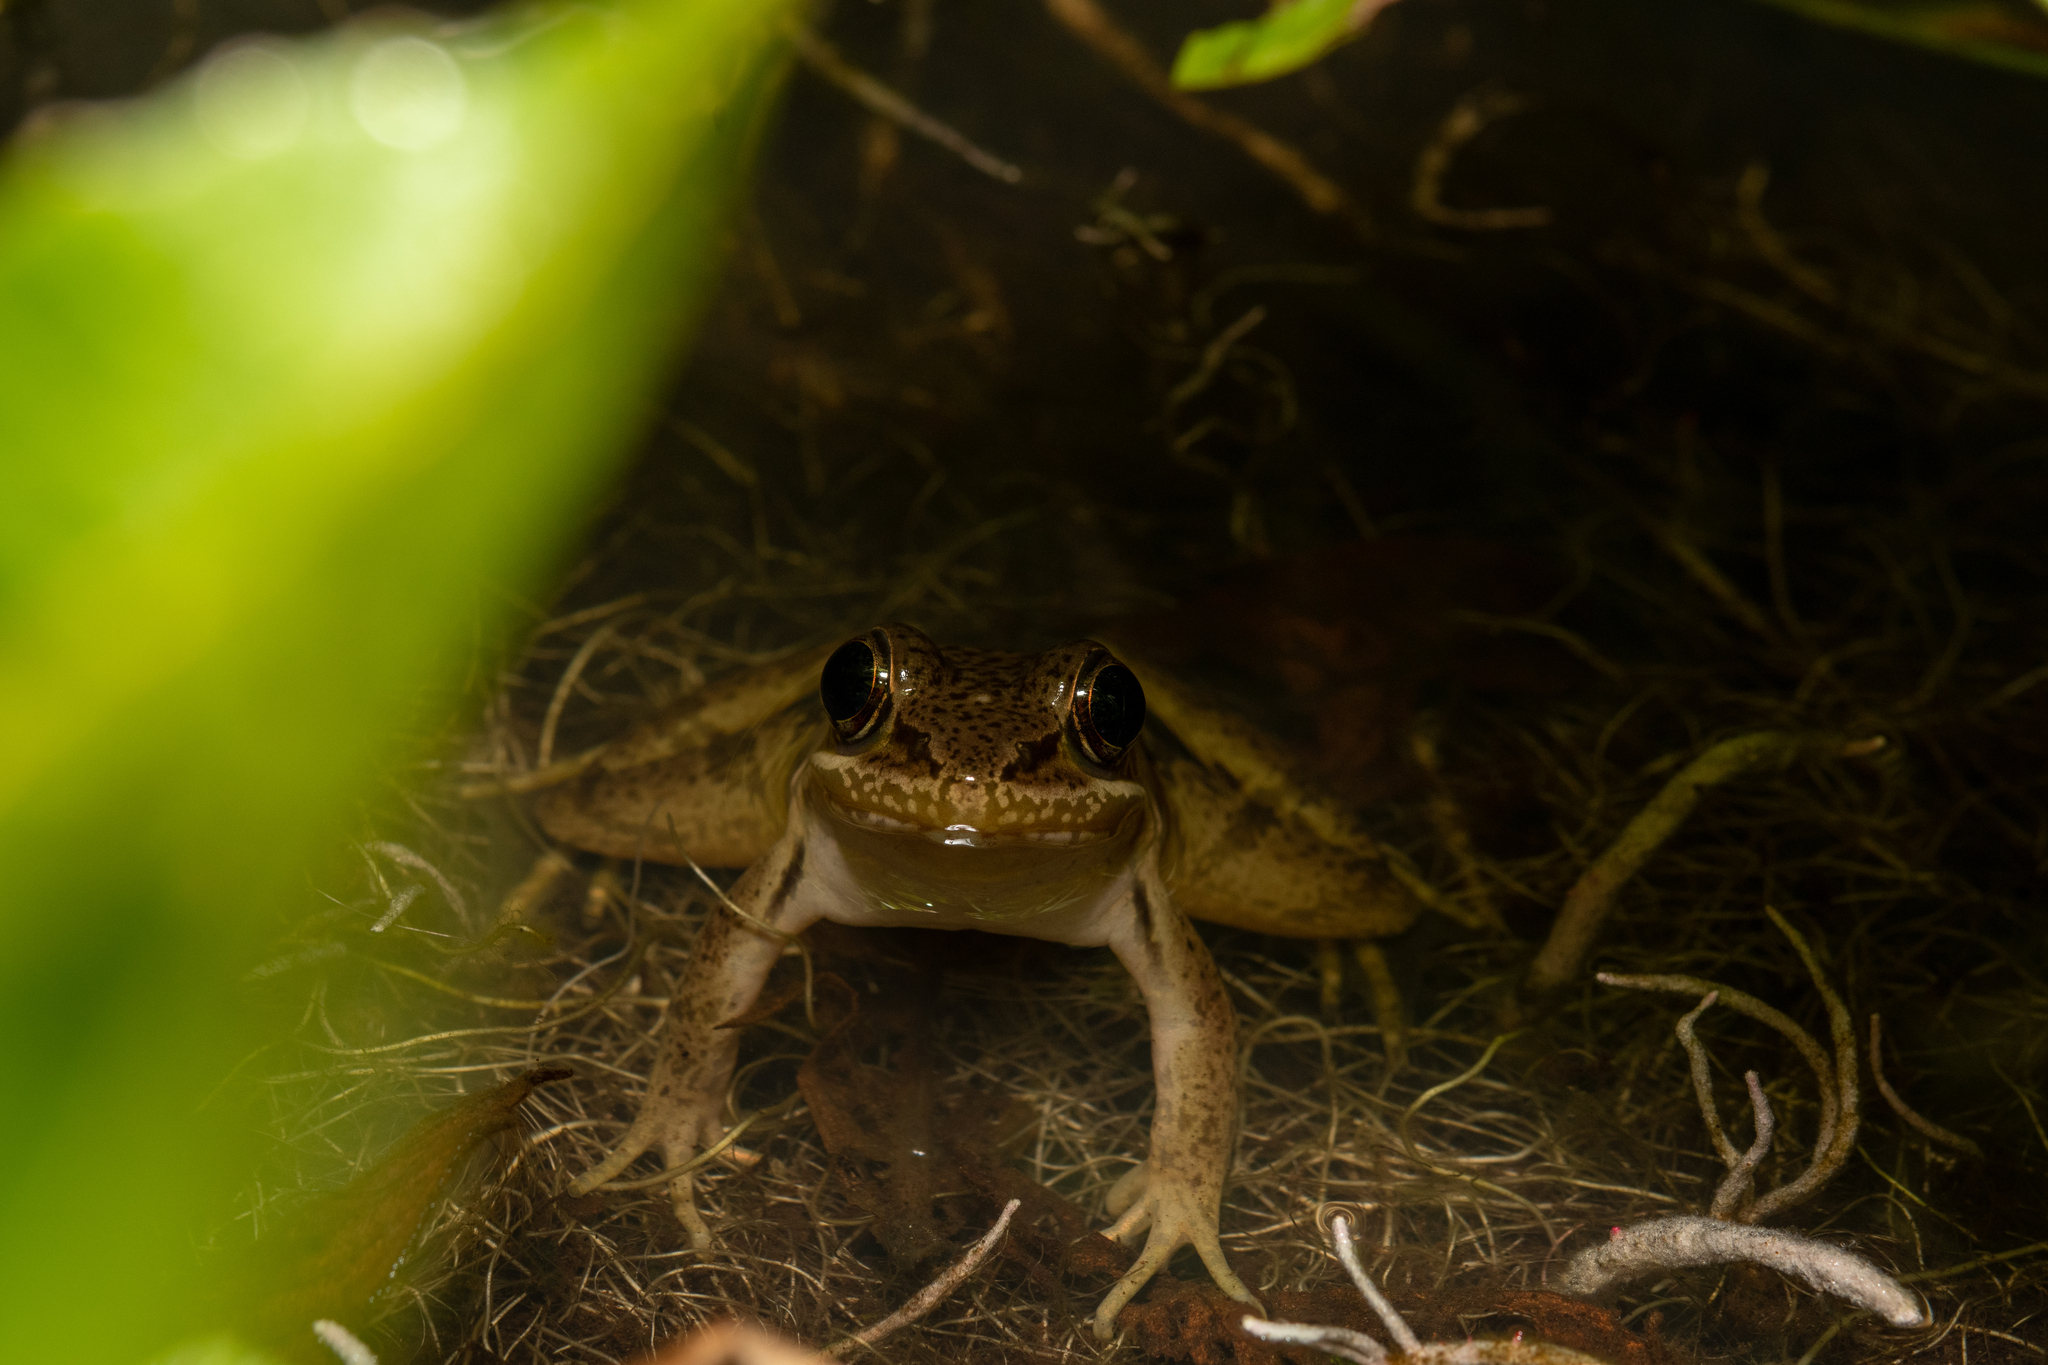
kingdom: Animalia
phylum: Chordata
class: Amphibia
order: Anura
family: Ranidae
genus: Lithobates
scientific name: Lithobates maculatus
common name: Highland frog
